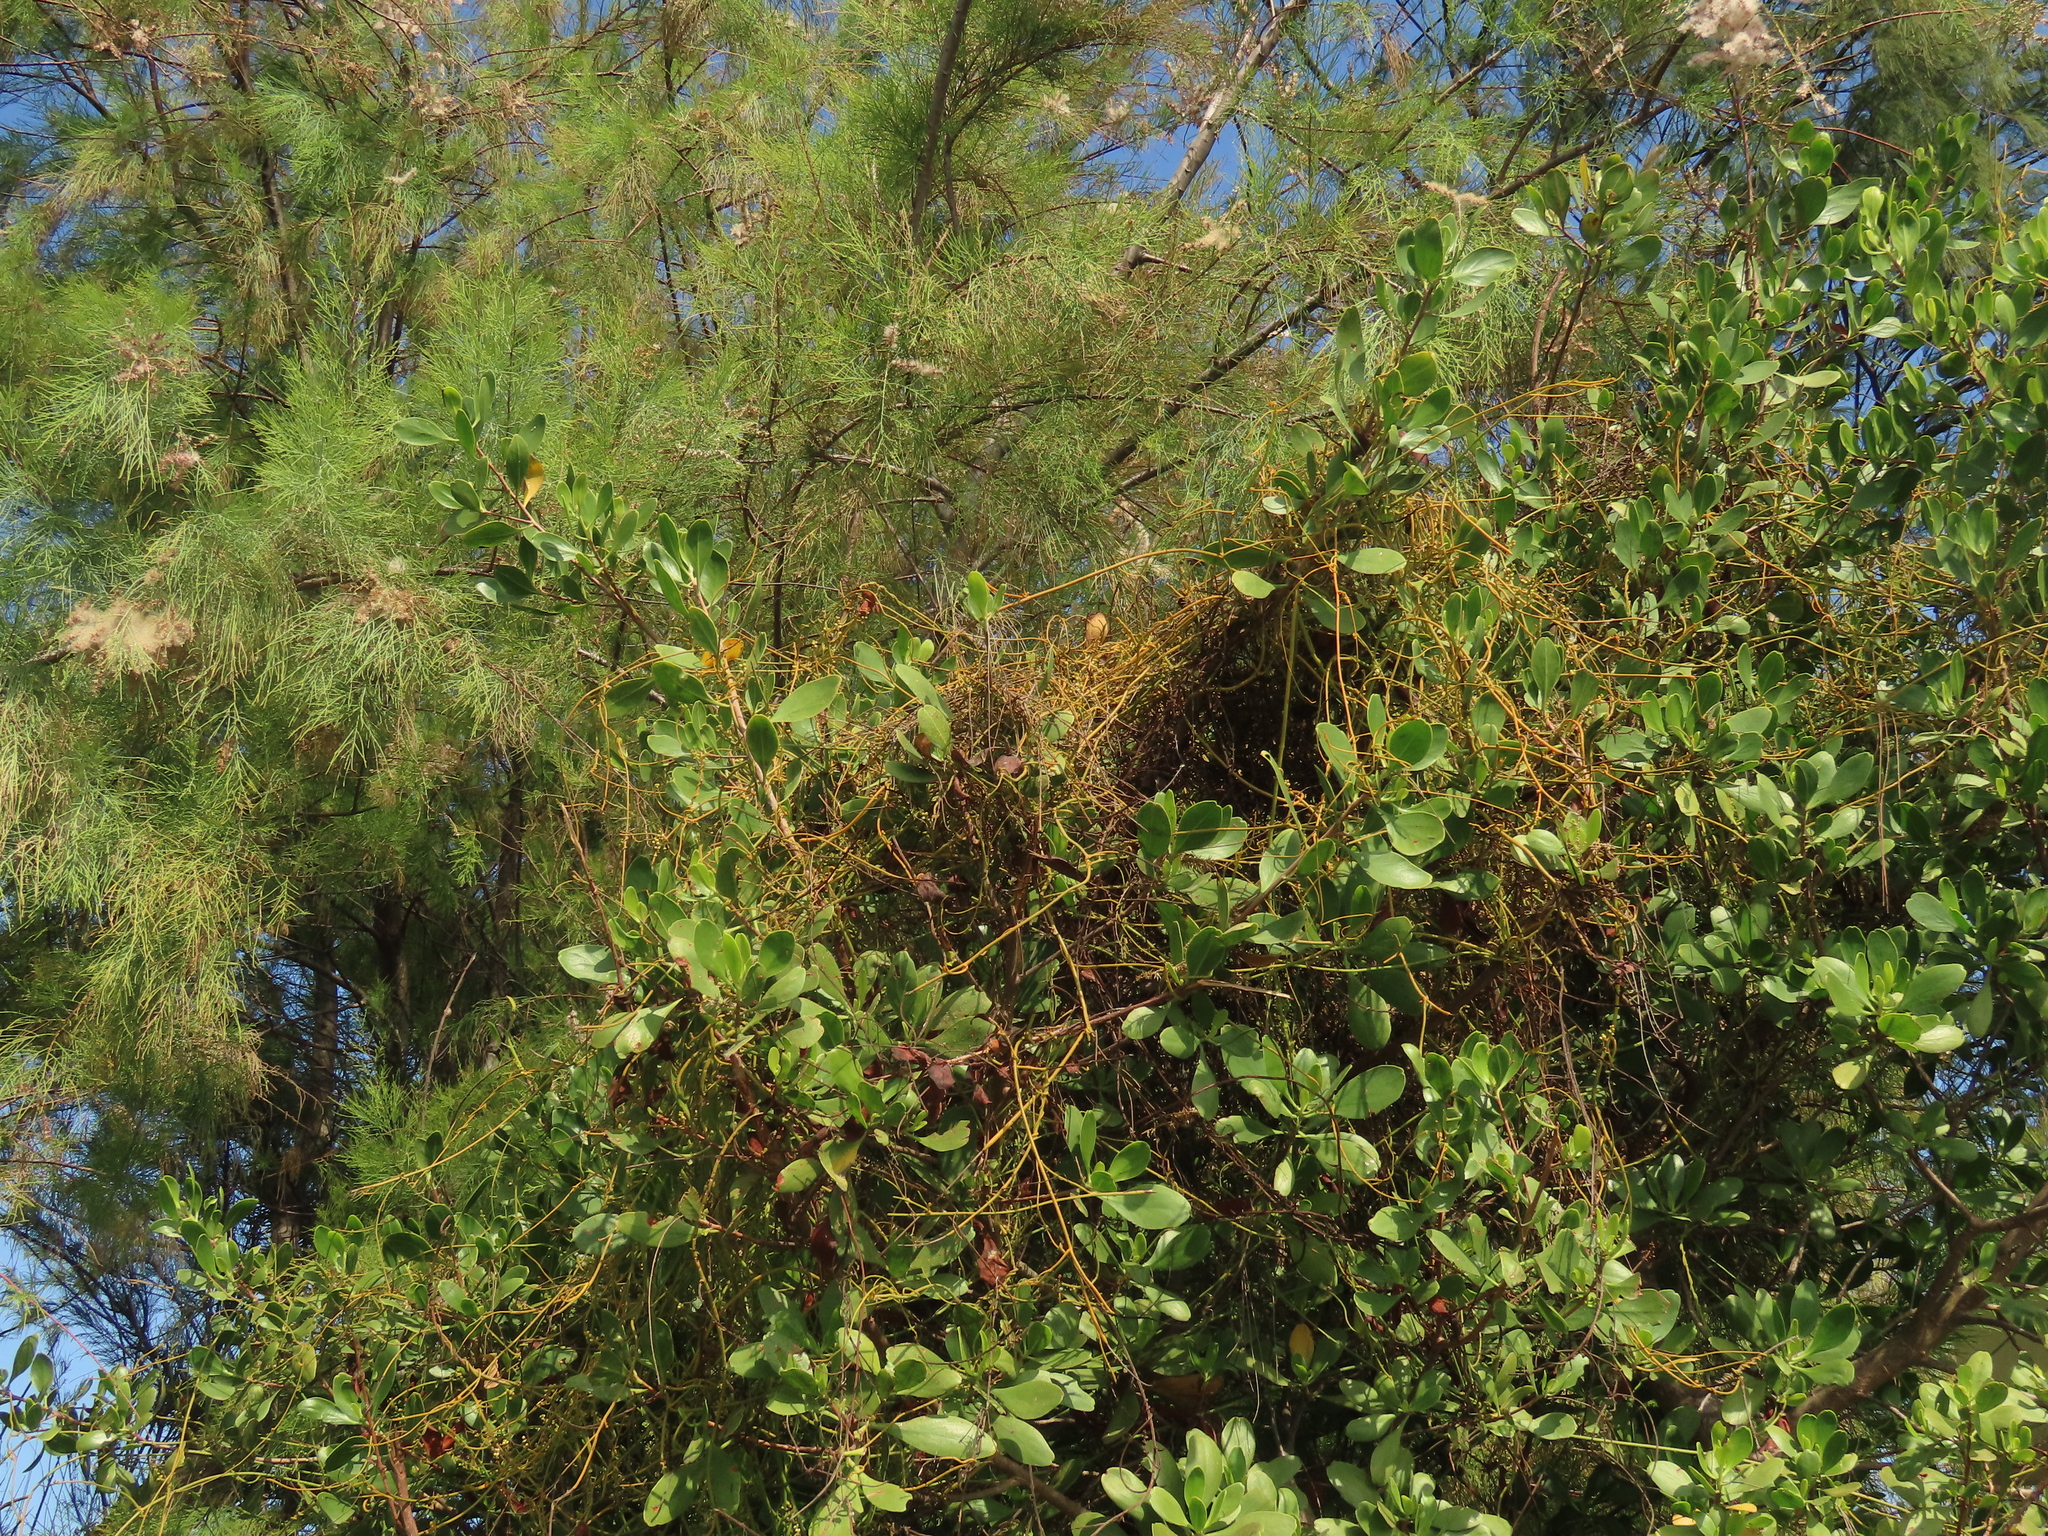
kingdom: Plantae
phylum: Tracheophyta
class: Magnoliopsida
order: Laurales
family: Lauraceae
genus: Cassytha
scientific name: Cassytha filiformis
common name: Dodder-laurel
